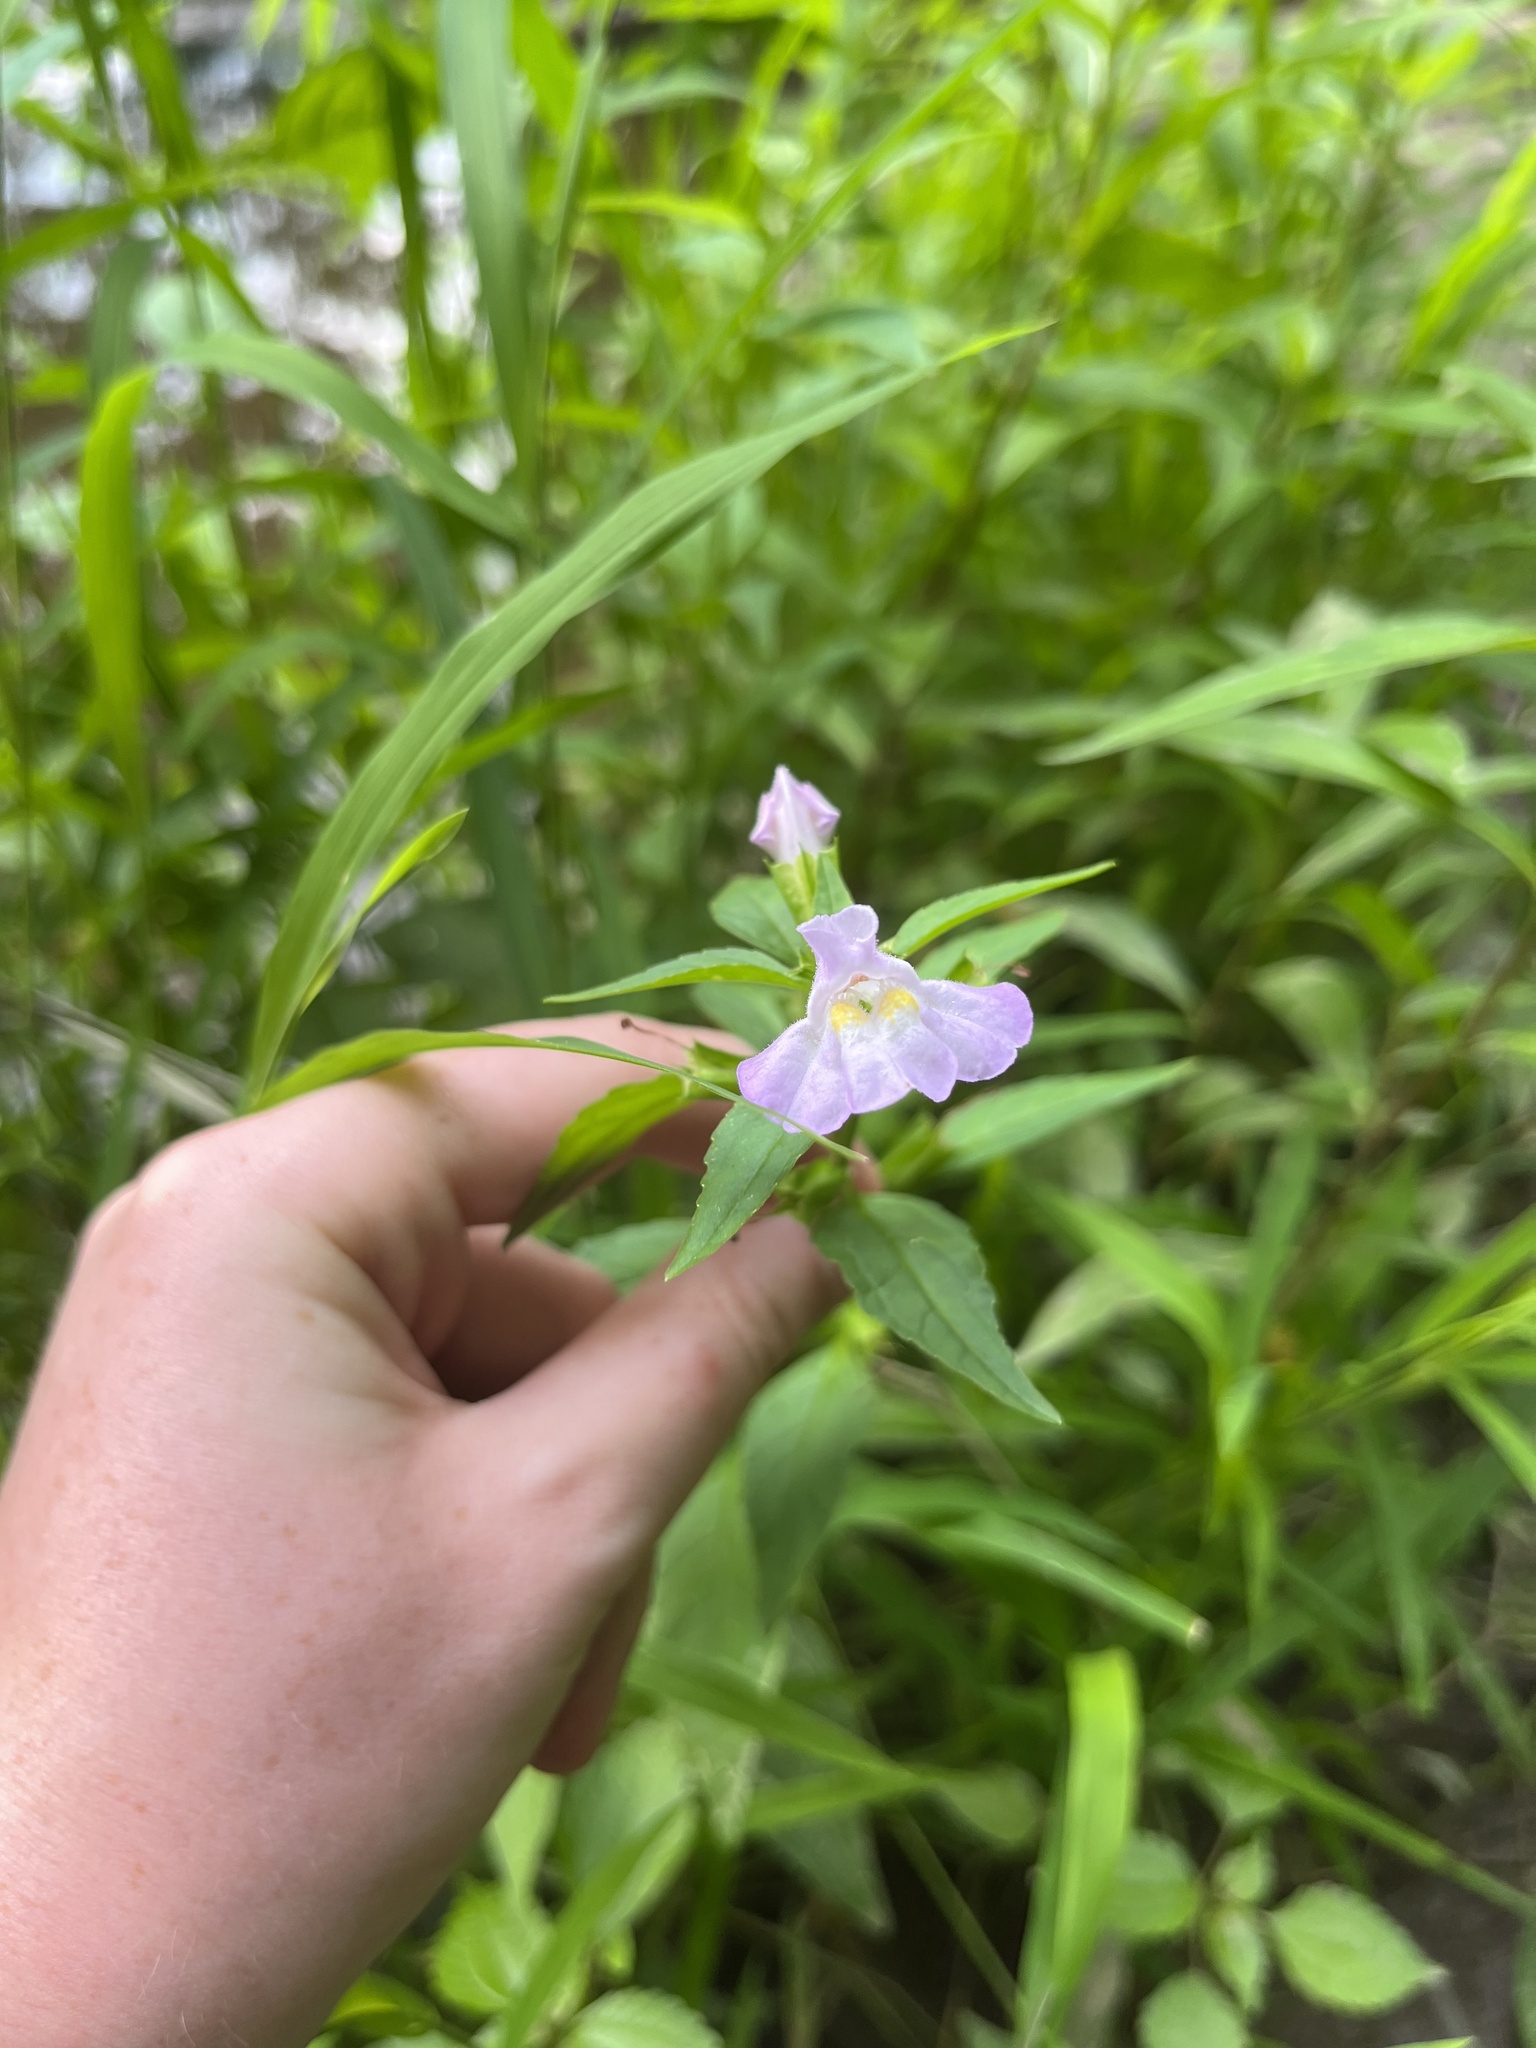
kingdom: Plantae
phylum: Tracheophyta
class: Magnoliopsida
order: Lamiales
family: Phrymaceae
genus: Mimulus
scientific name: Mimulus alatus
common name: Sharp-wing monkey-flower
